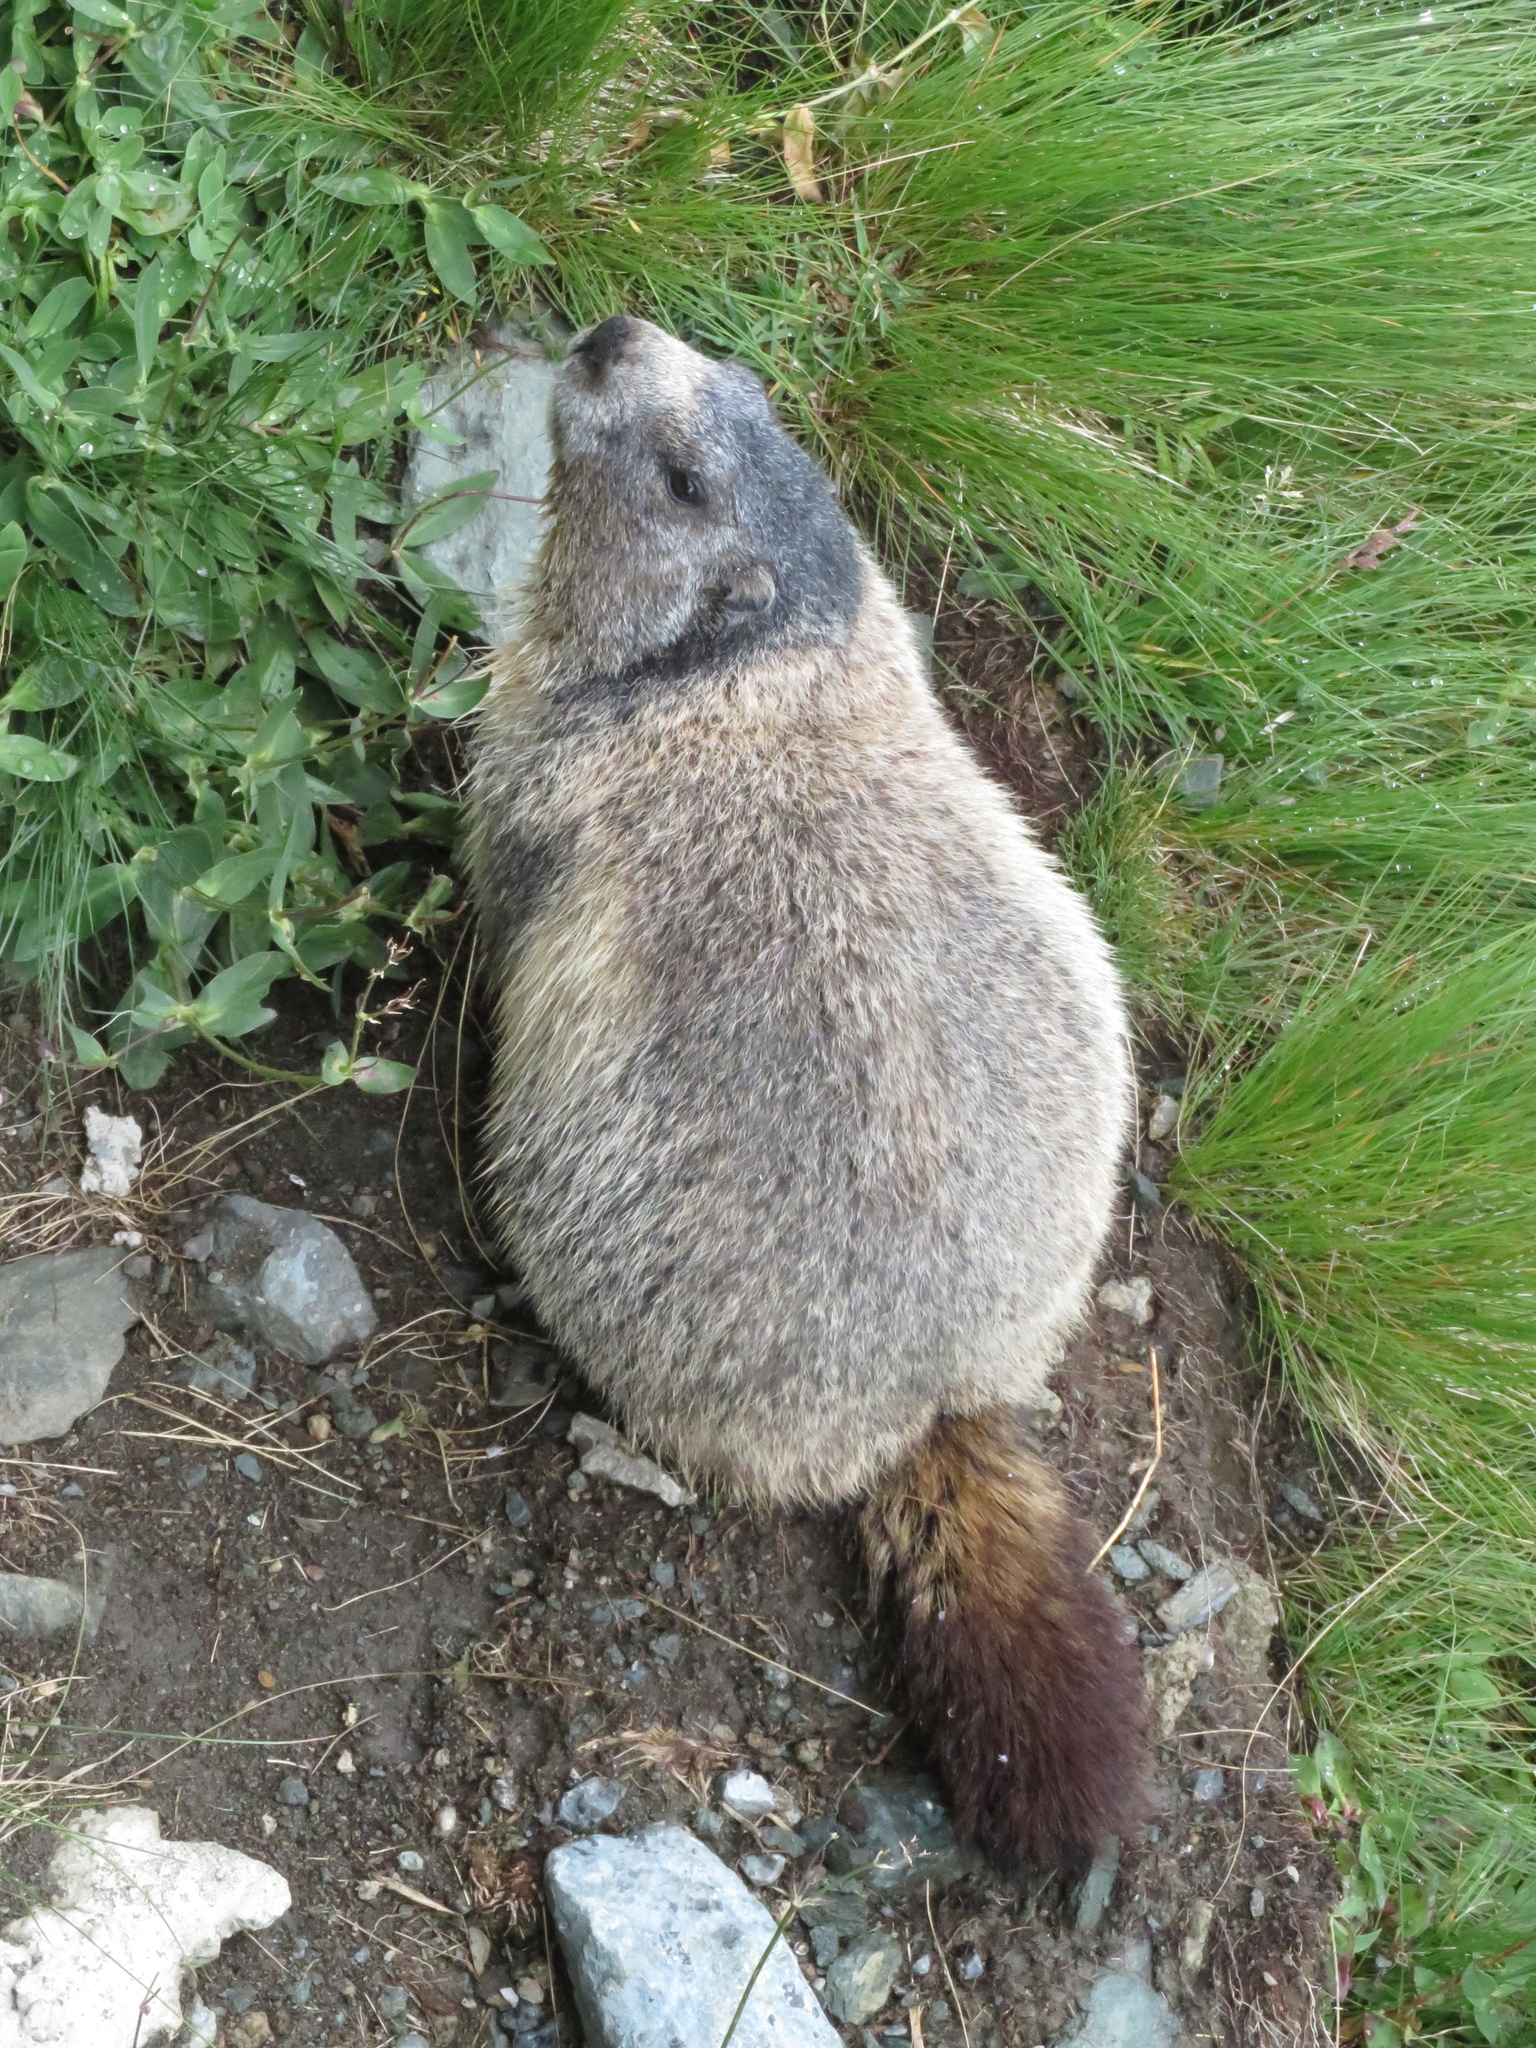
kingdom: Animalia
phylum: Chordata
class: Mammalia
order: Rodentia
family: Sciuridae
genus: Marmota
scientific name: Marmota marmota
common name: Alpine marmot
